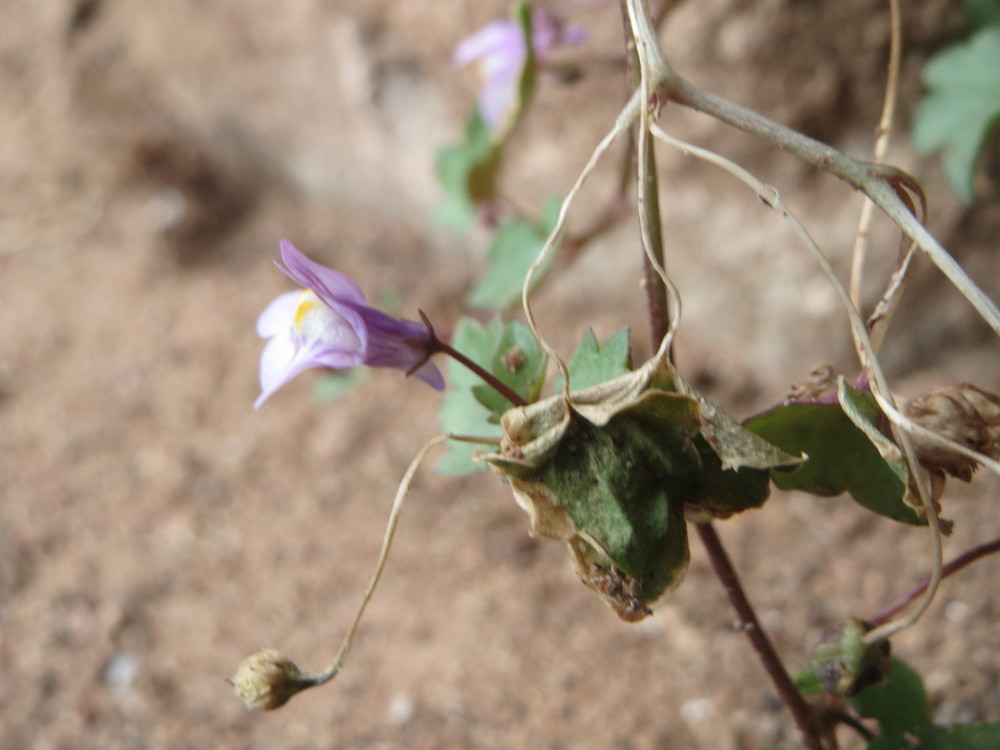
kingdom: Plantae
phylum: Tracheophyta
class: Magnoliopsida
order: Lamiales
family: Plantaginaceae
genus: Cymbalaria
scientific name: Cymbalaria muralis
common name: Ivy-leaved toadflax
